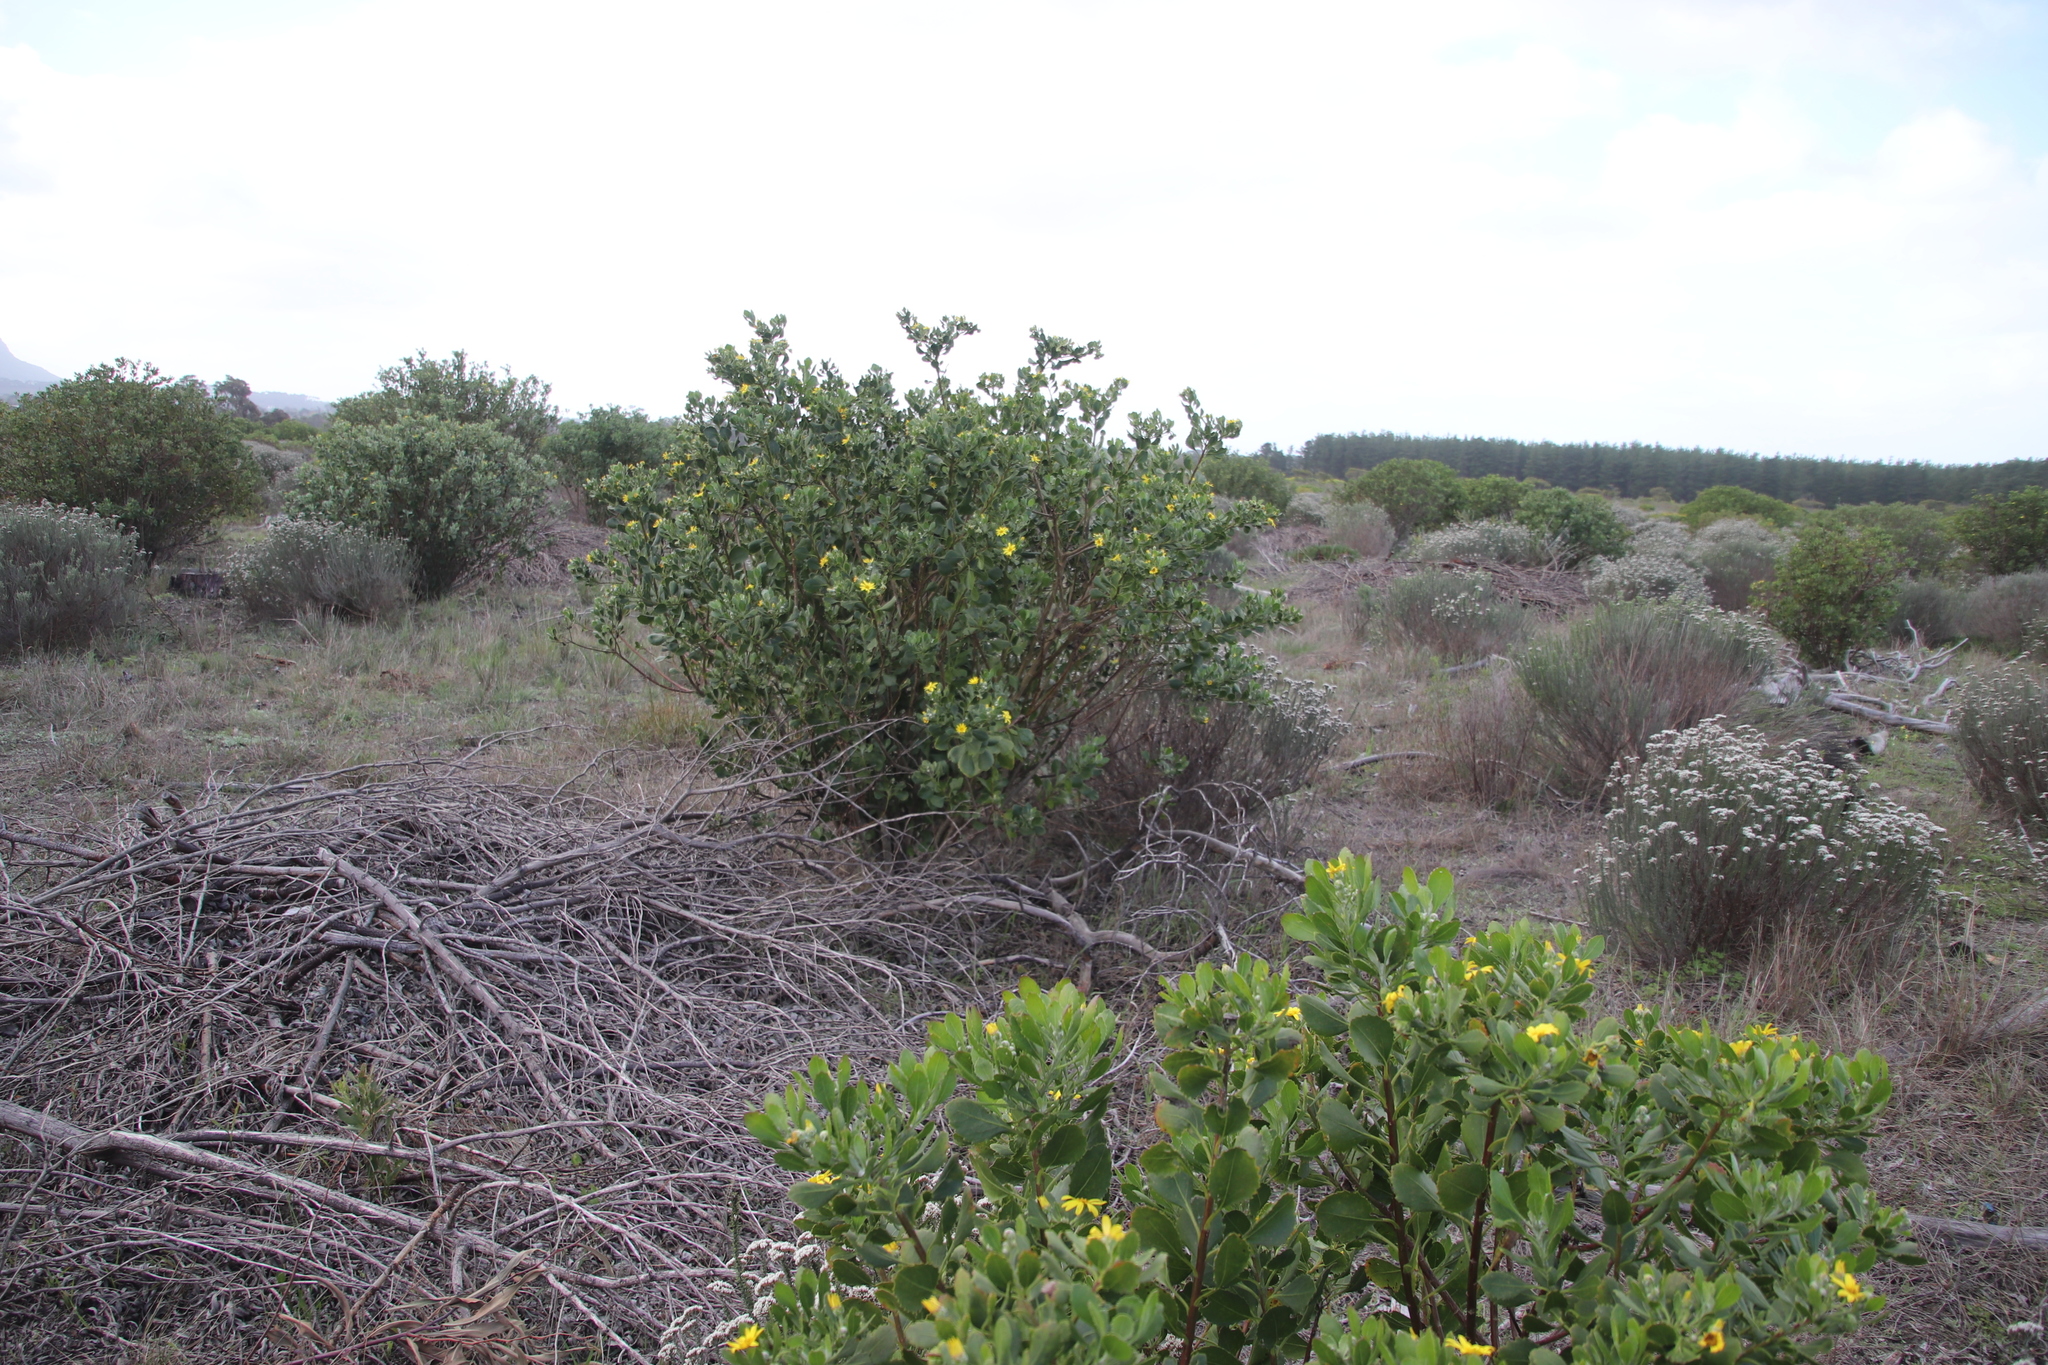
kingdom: Plantae
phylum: Tracheophyta
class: Magnoliopsida
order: Asterales
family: Asteraceae
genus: Osteospermum
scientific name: Osteospermum moniliferum
